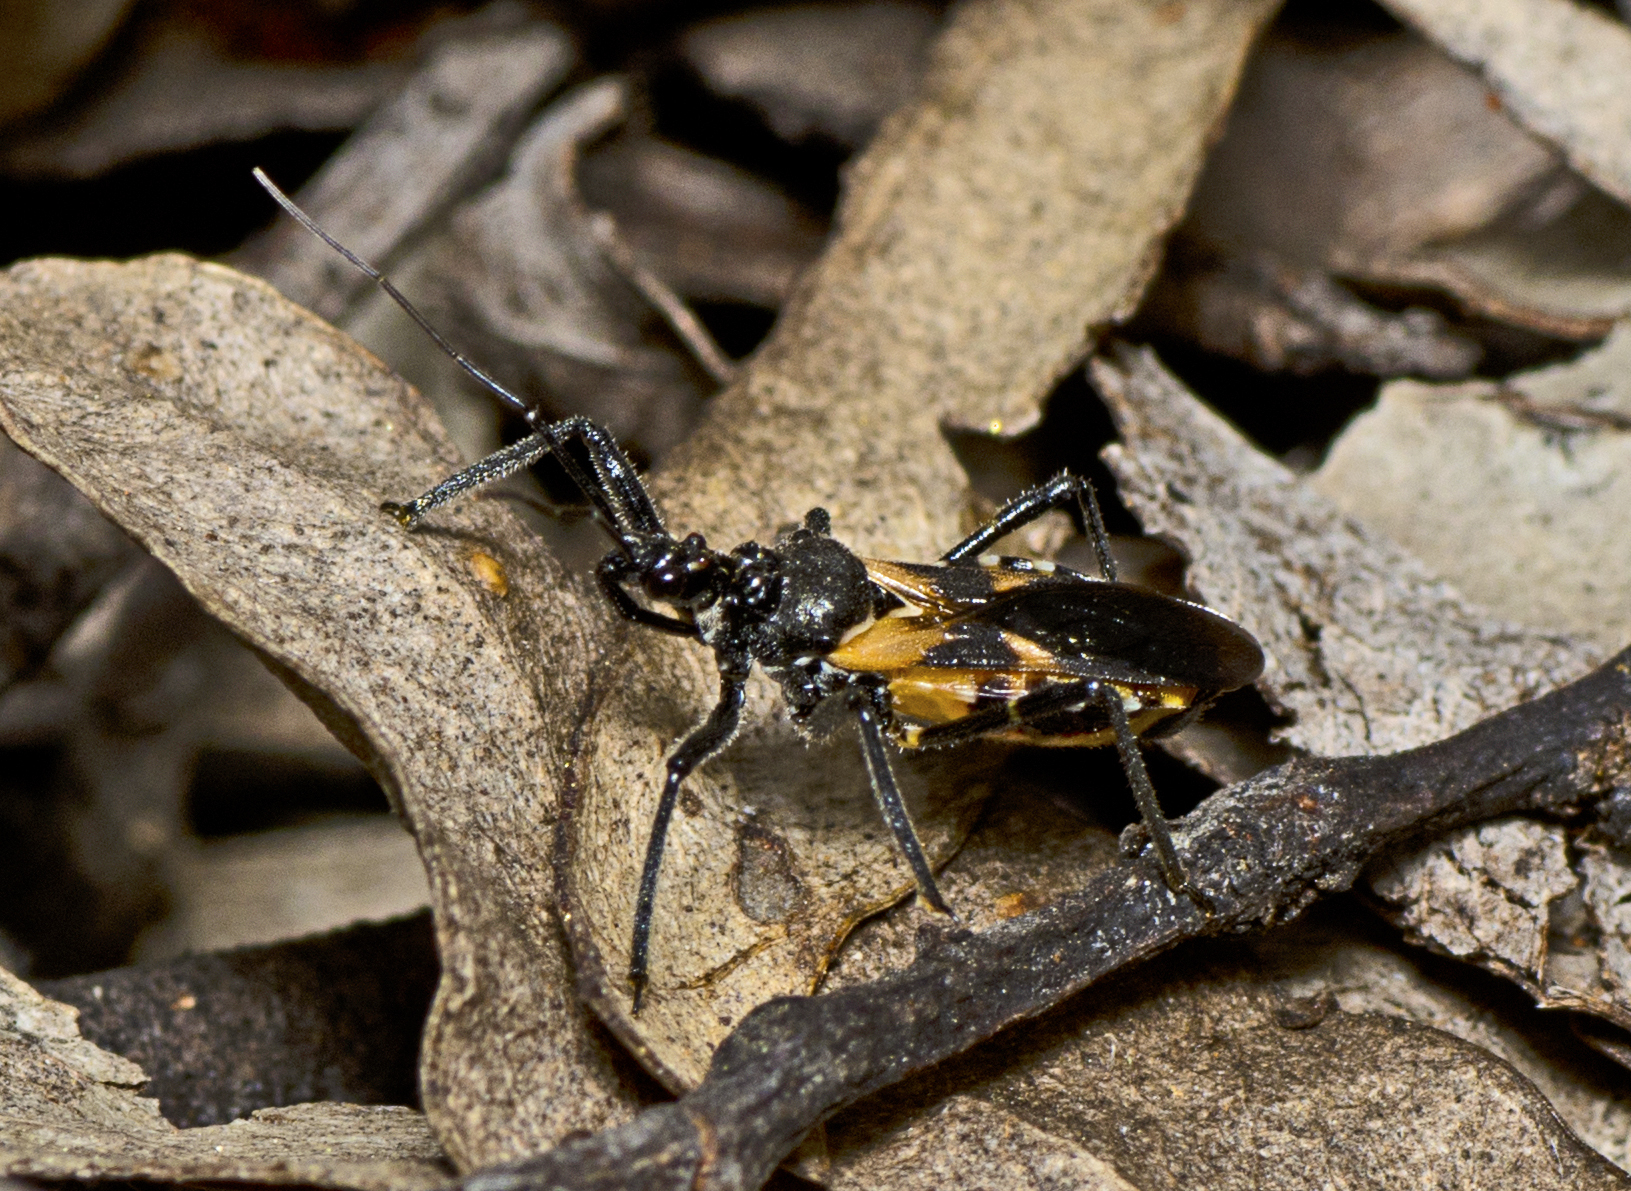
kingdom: Animalia
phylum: Arthropoda
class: Insecta
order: Hemiptera
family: Reduviidae
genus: Catasphactes
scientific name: Catasphactes coprias
